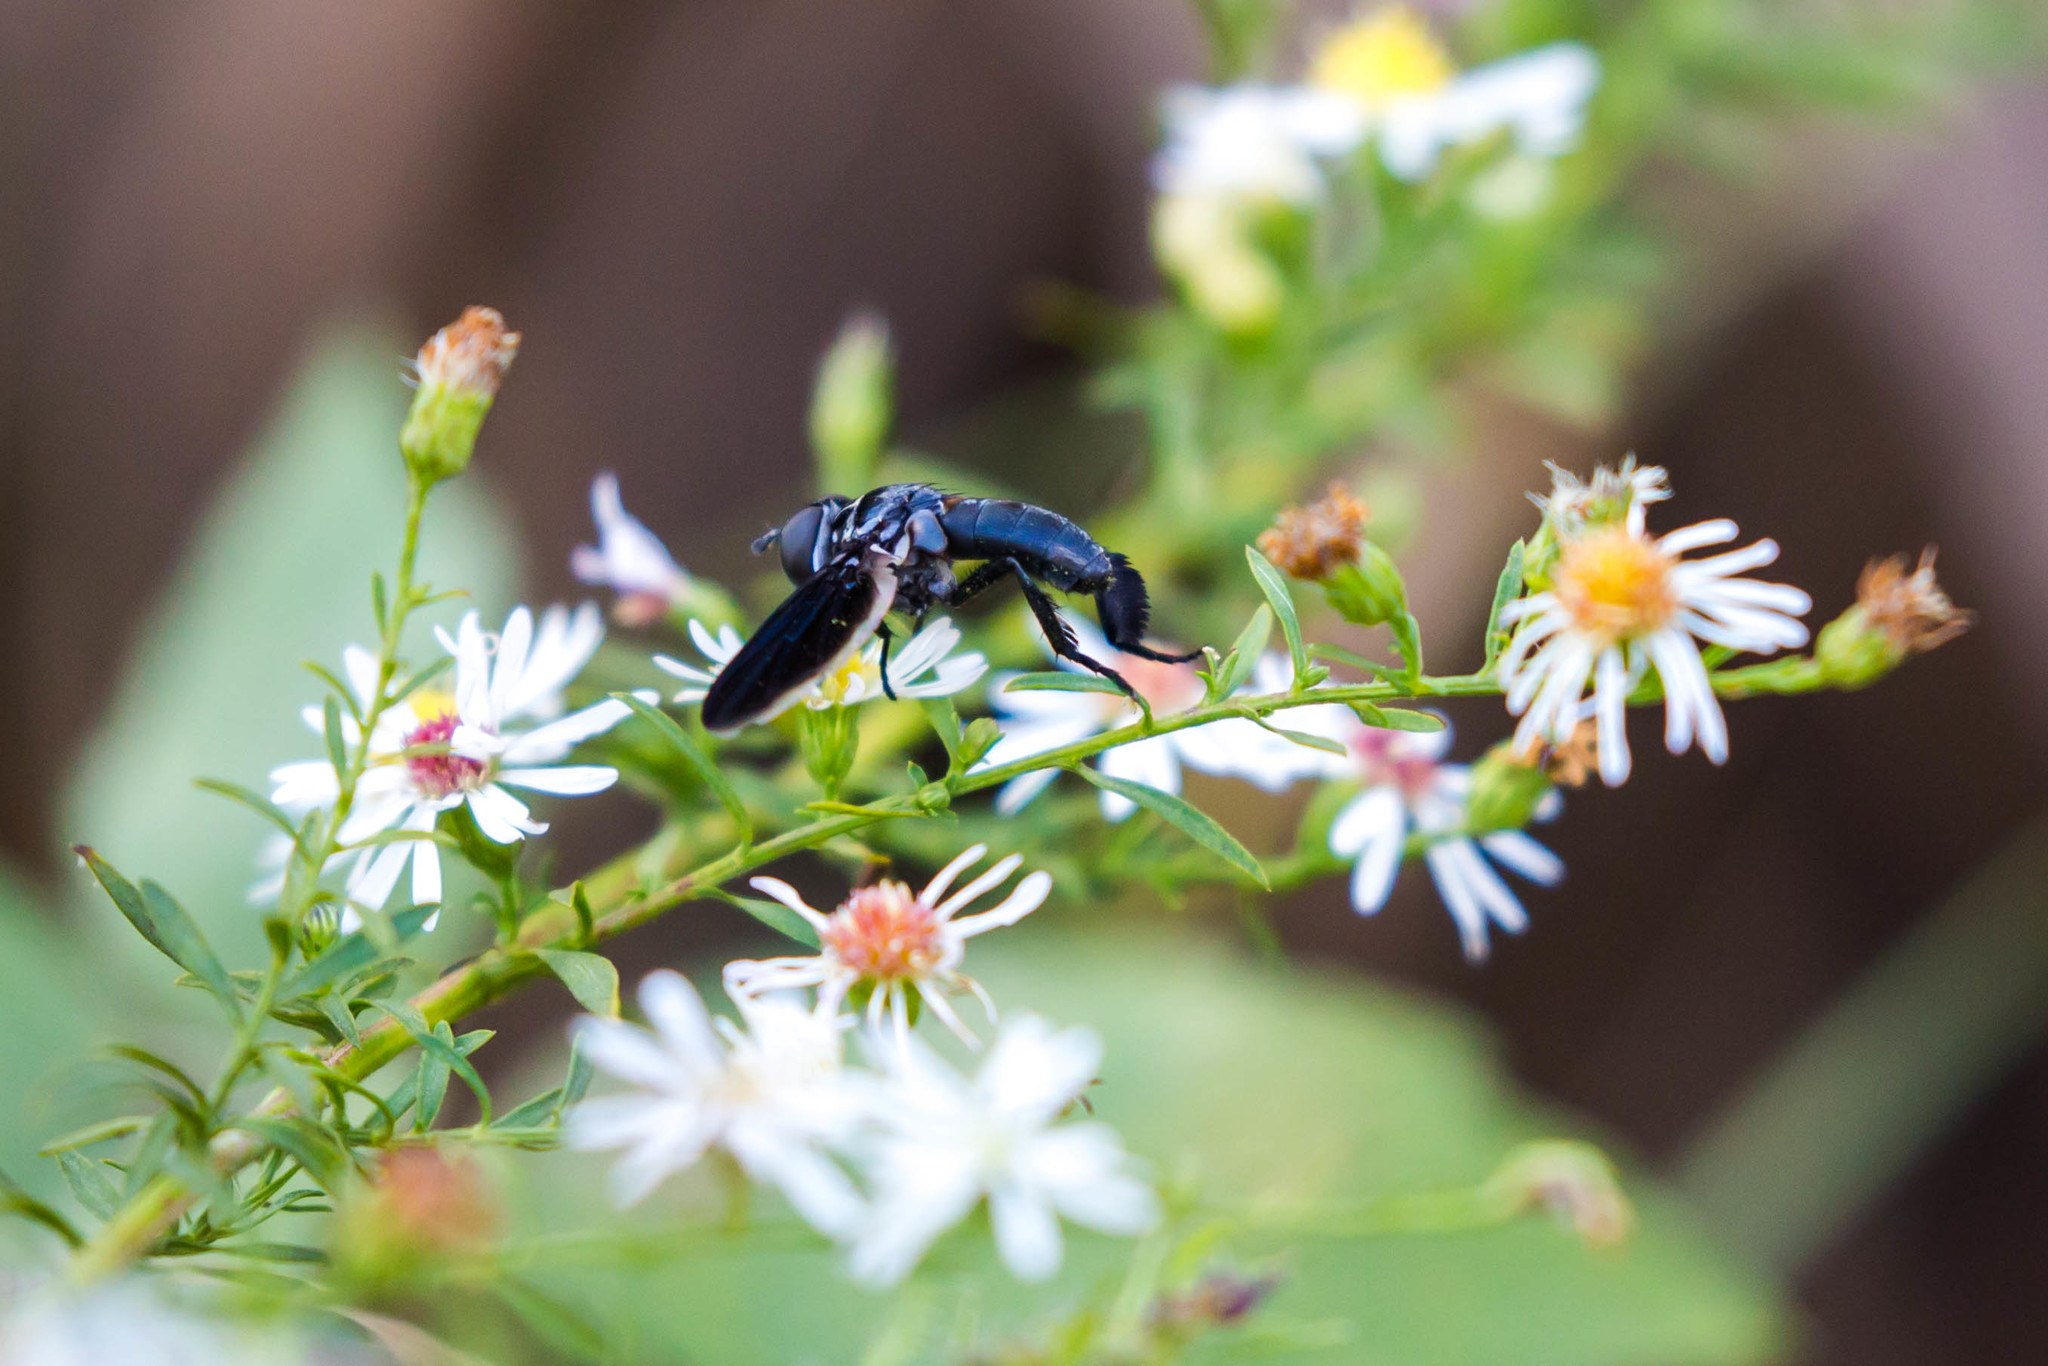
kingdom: Animalia
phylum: Arthropoda
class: Insecta
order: Diptera
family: Tachinidae
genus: Trichopoda
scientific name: Trichopoda lanipes
